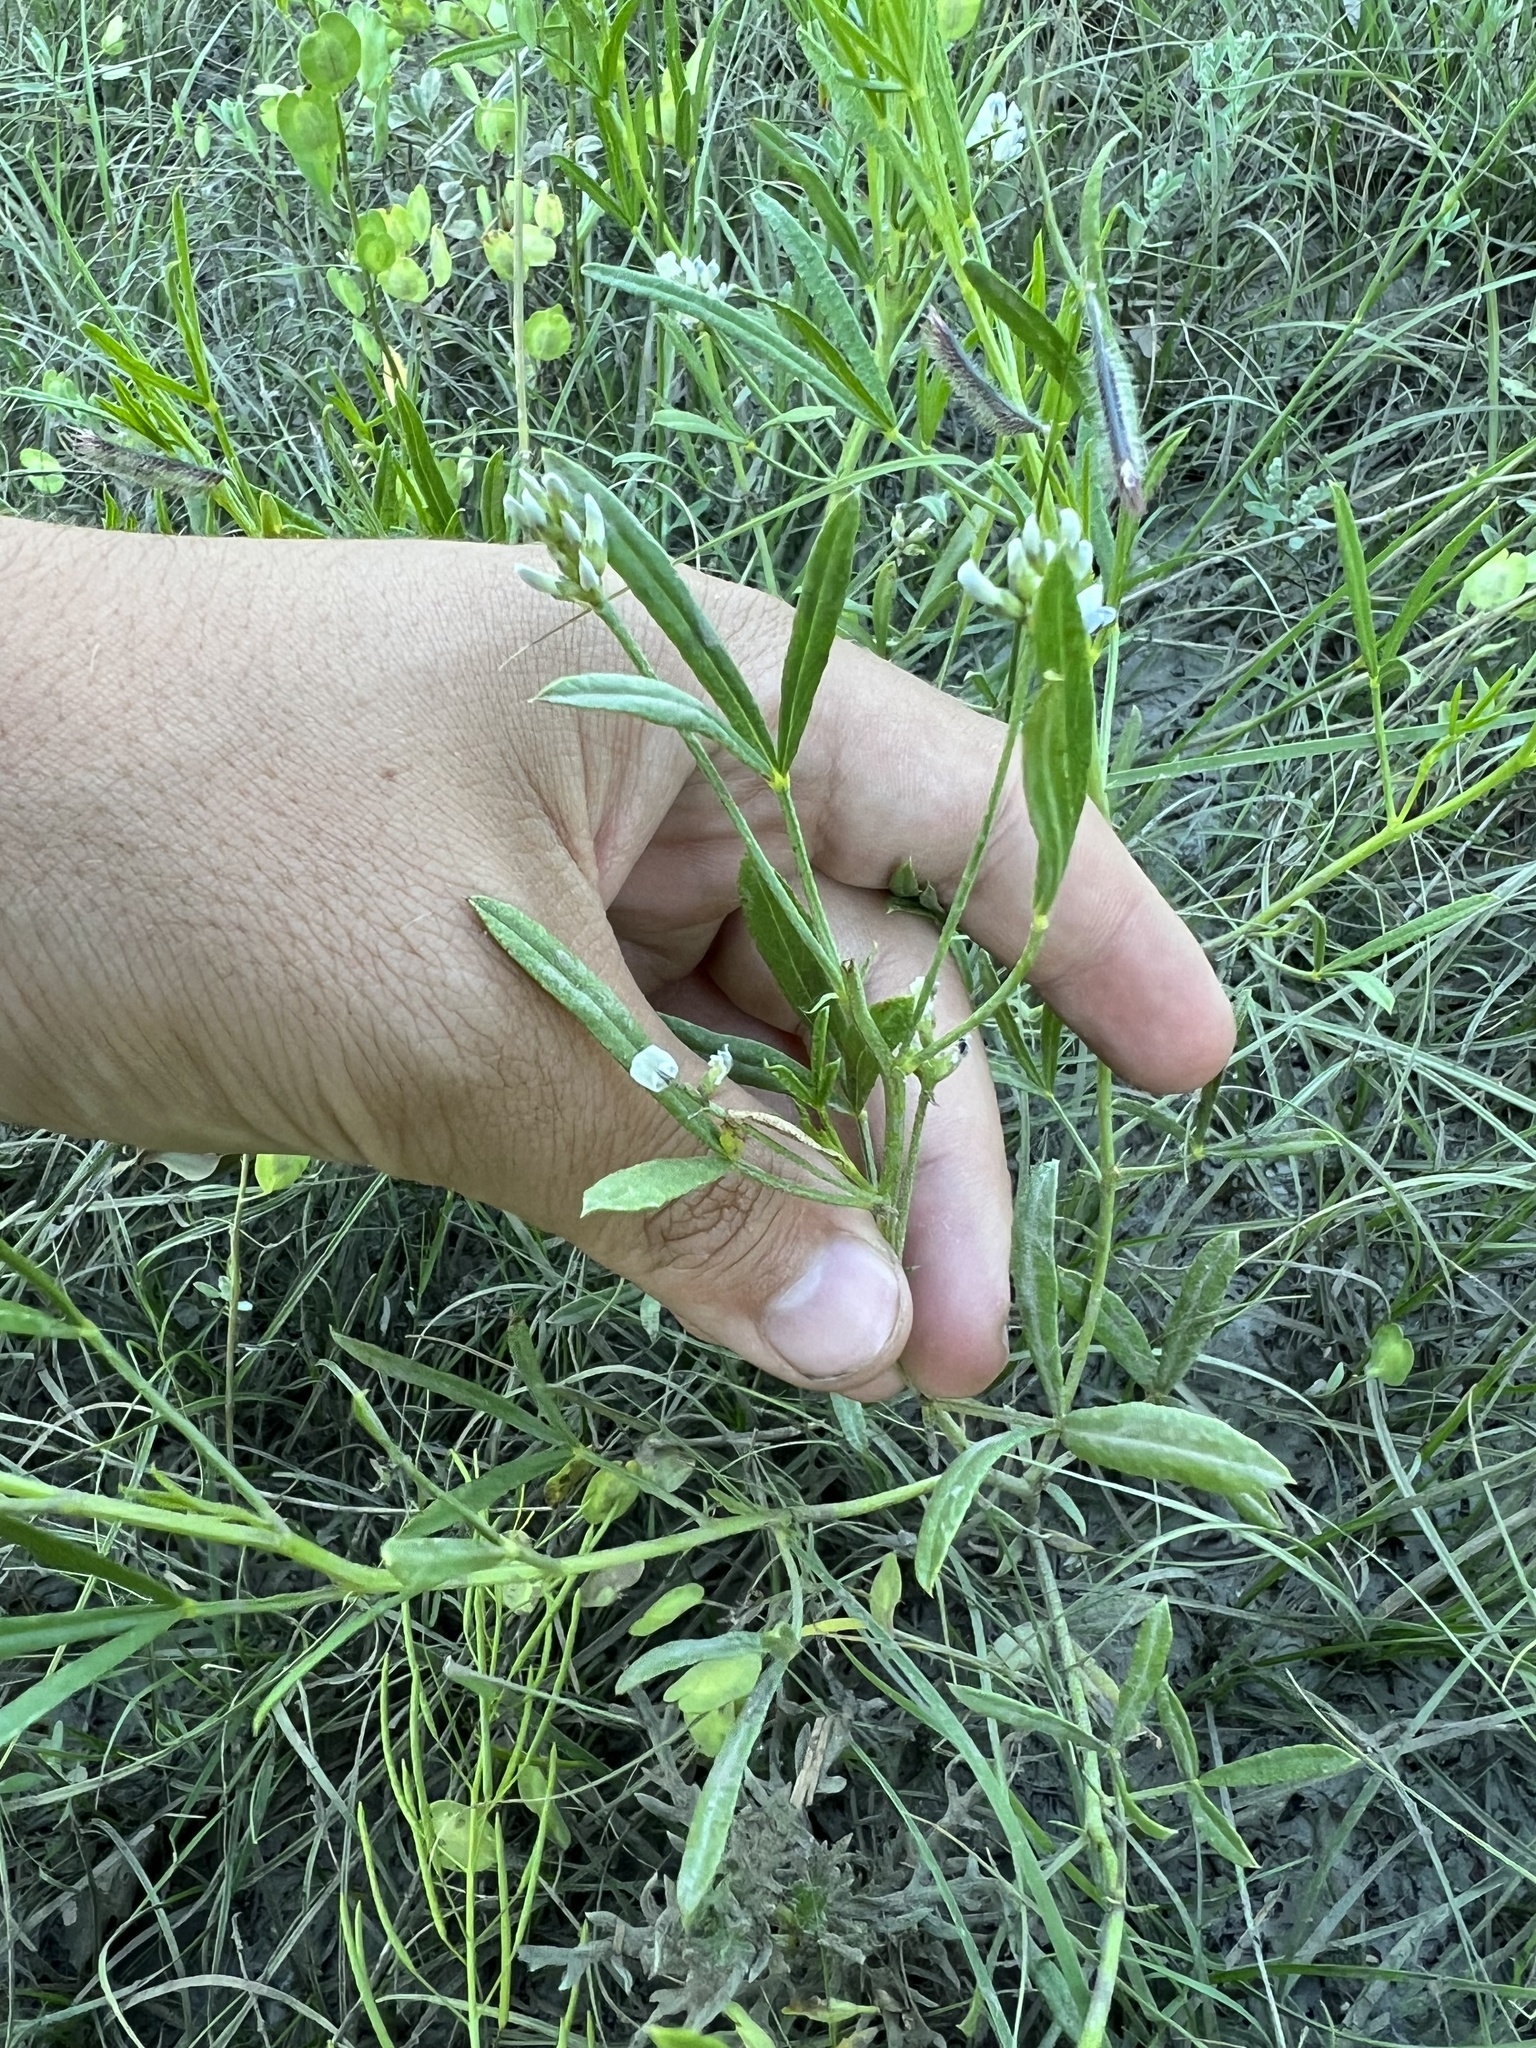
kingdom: Plantae
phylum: Tracheophyta
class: Magnoliopsida
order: Fabales
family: Fabaceae
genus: Ladeania
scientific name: Ladeania lanceolata
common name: Dune scurf-pea
